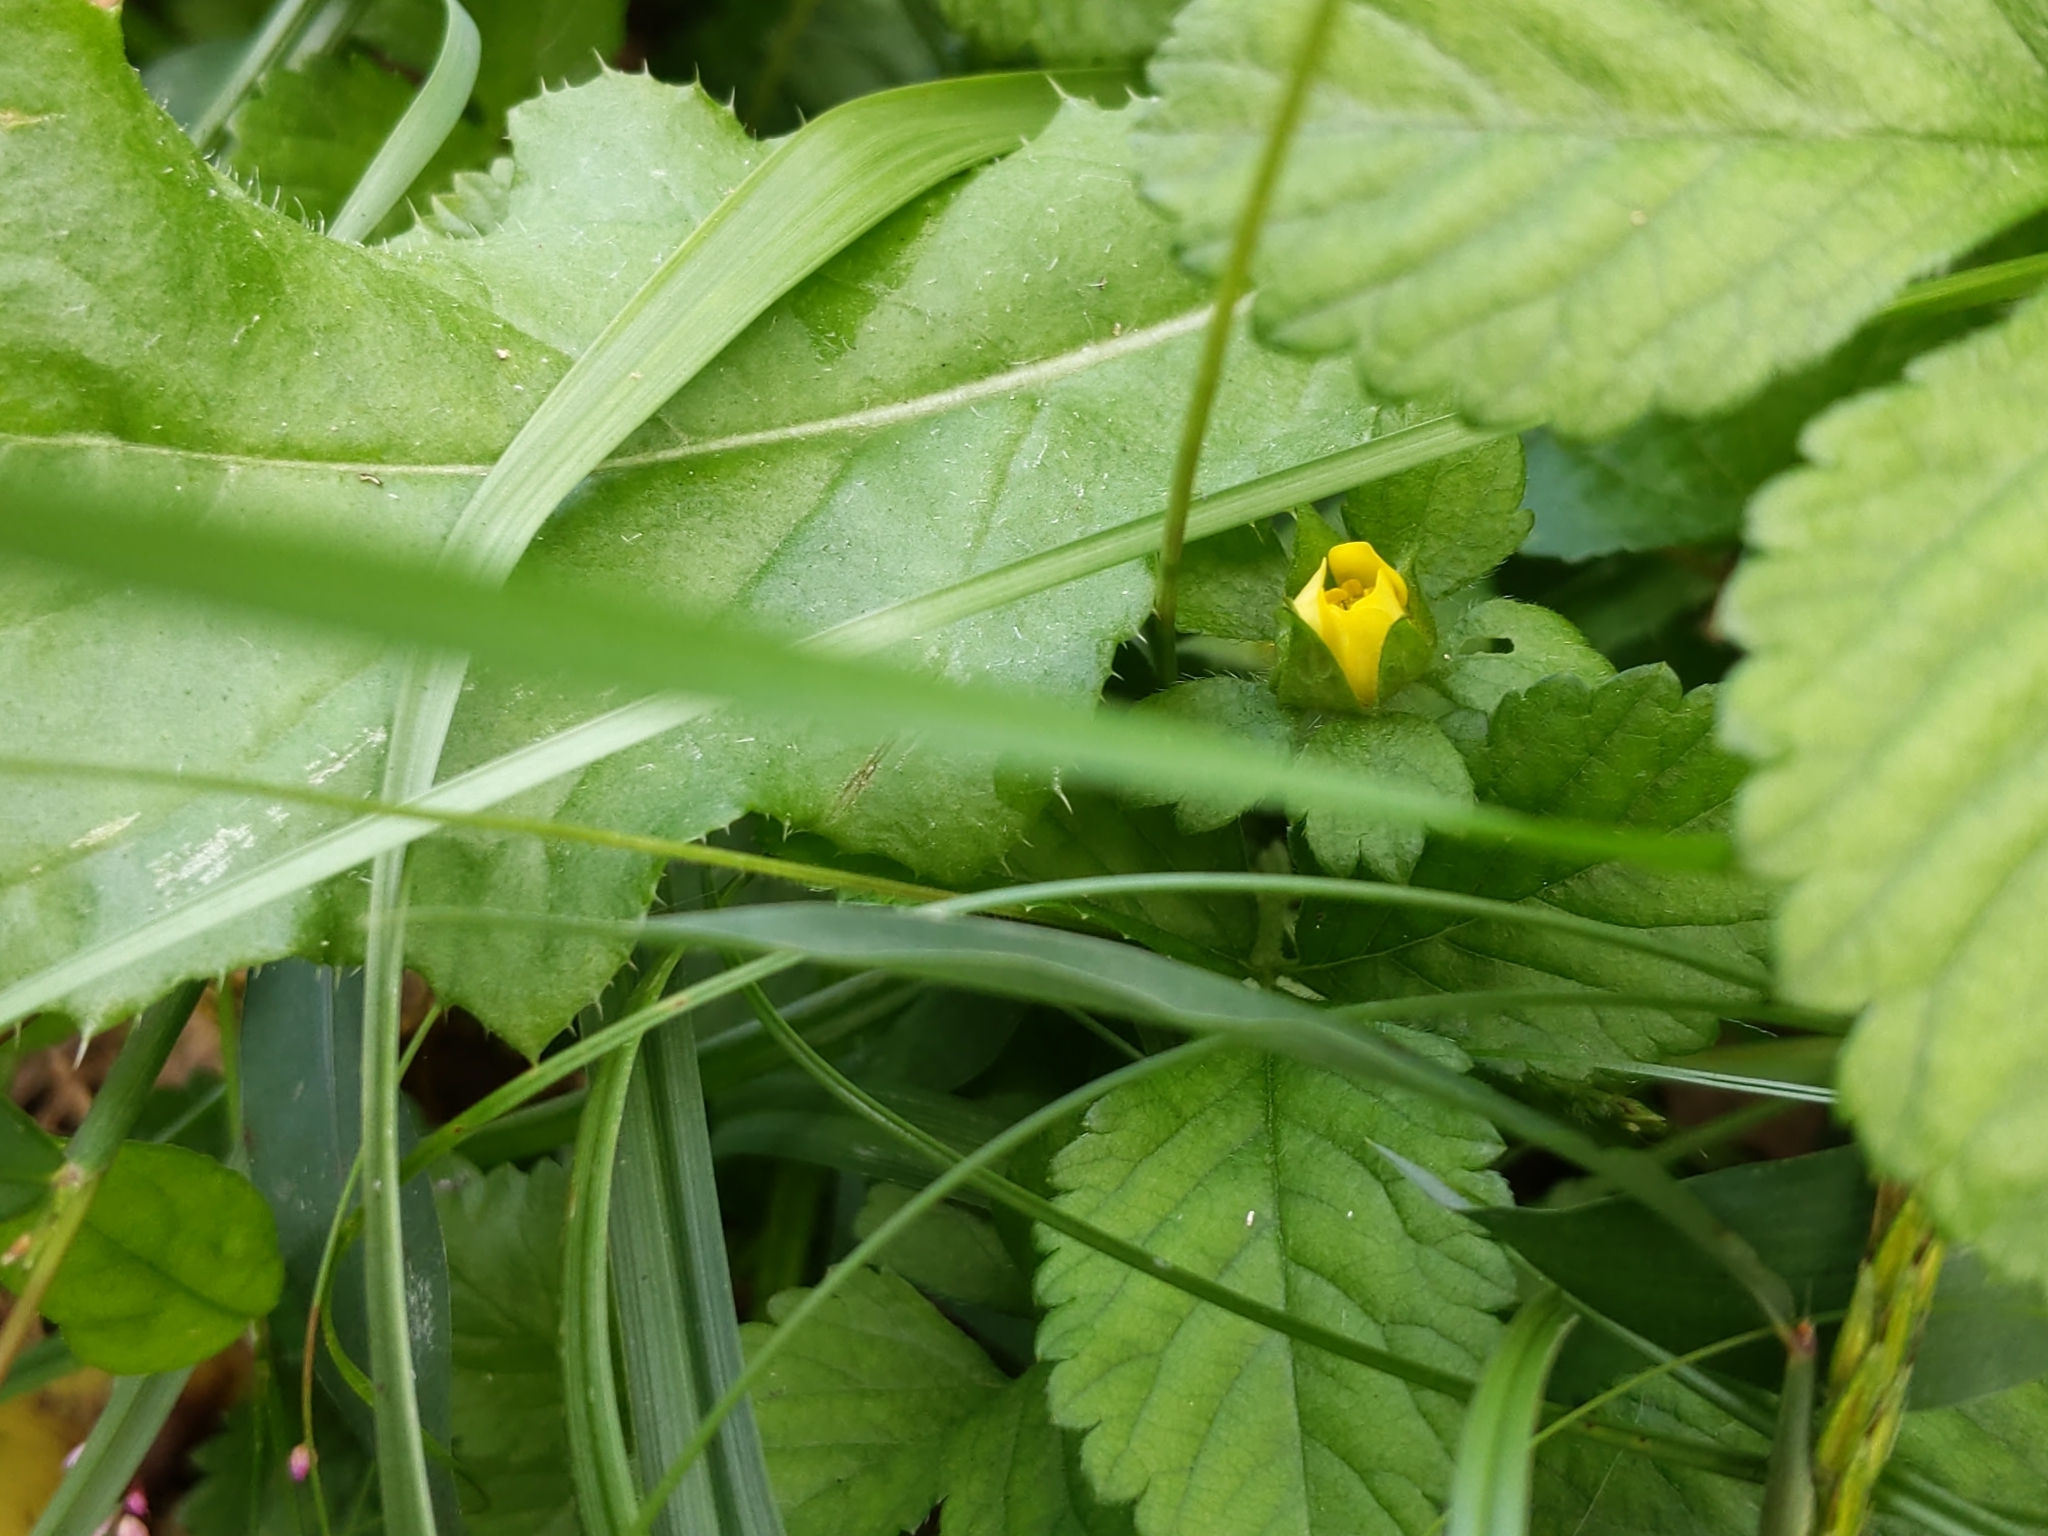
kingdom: Plantae
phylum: Tracheophyta
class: Magnoliopsida
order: Rosales
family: Rosaceae
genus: Potentilla
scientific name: Potentilla indica
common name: Yellow-flowered strawberry
